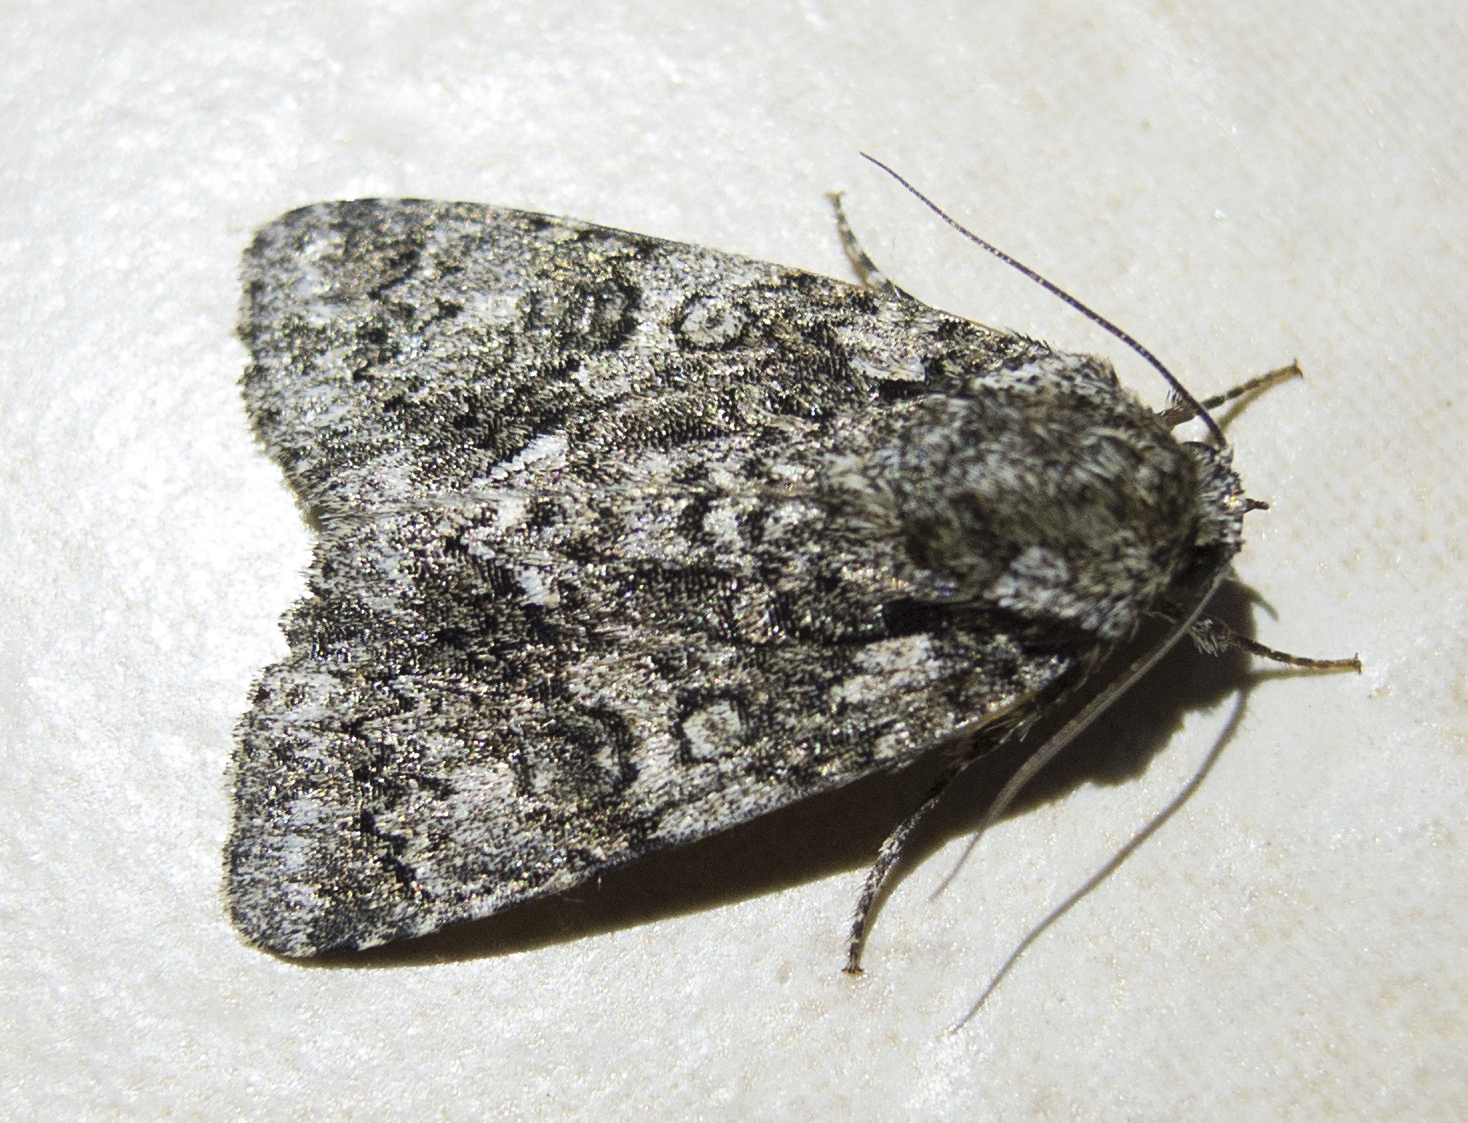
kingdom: Animalia
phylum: Arthropoda
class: Insecta
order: Lepidoptera
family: Noctuidae
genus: Acronicta
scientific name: Acronicta rumicis
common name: Knot grass
